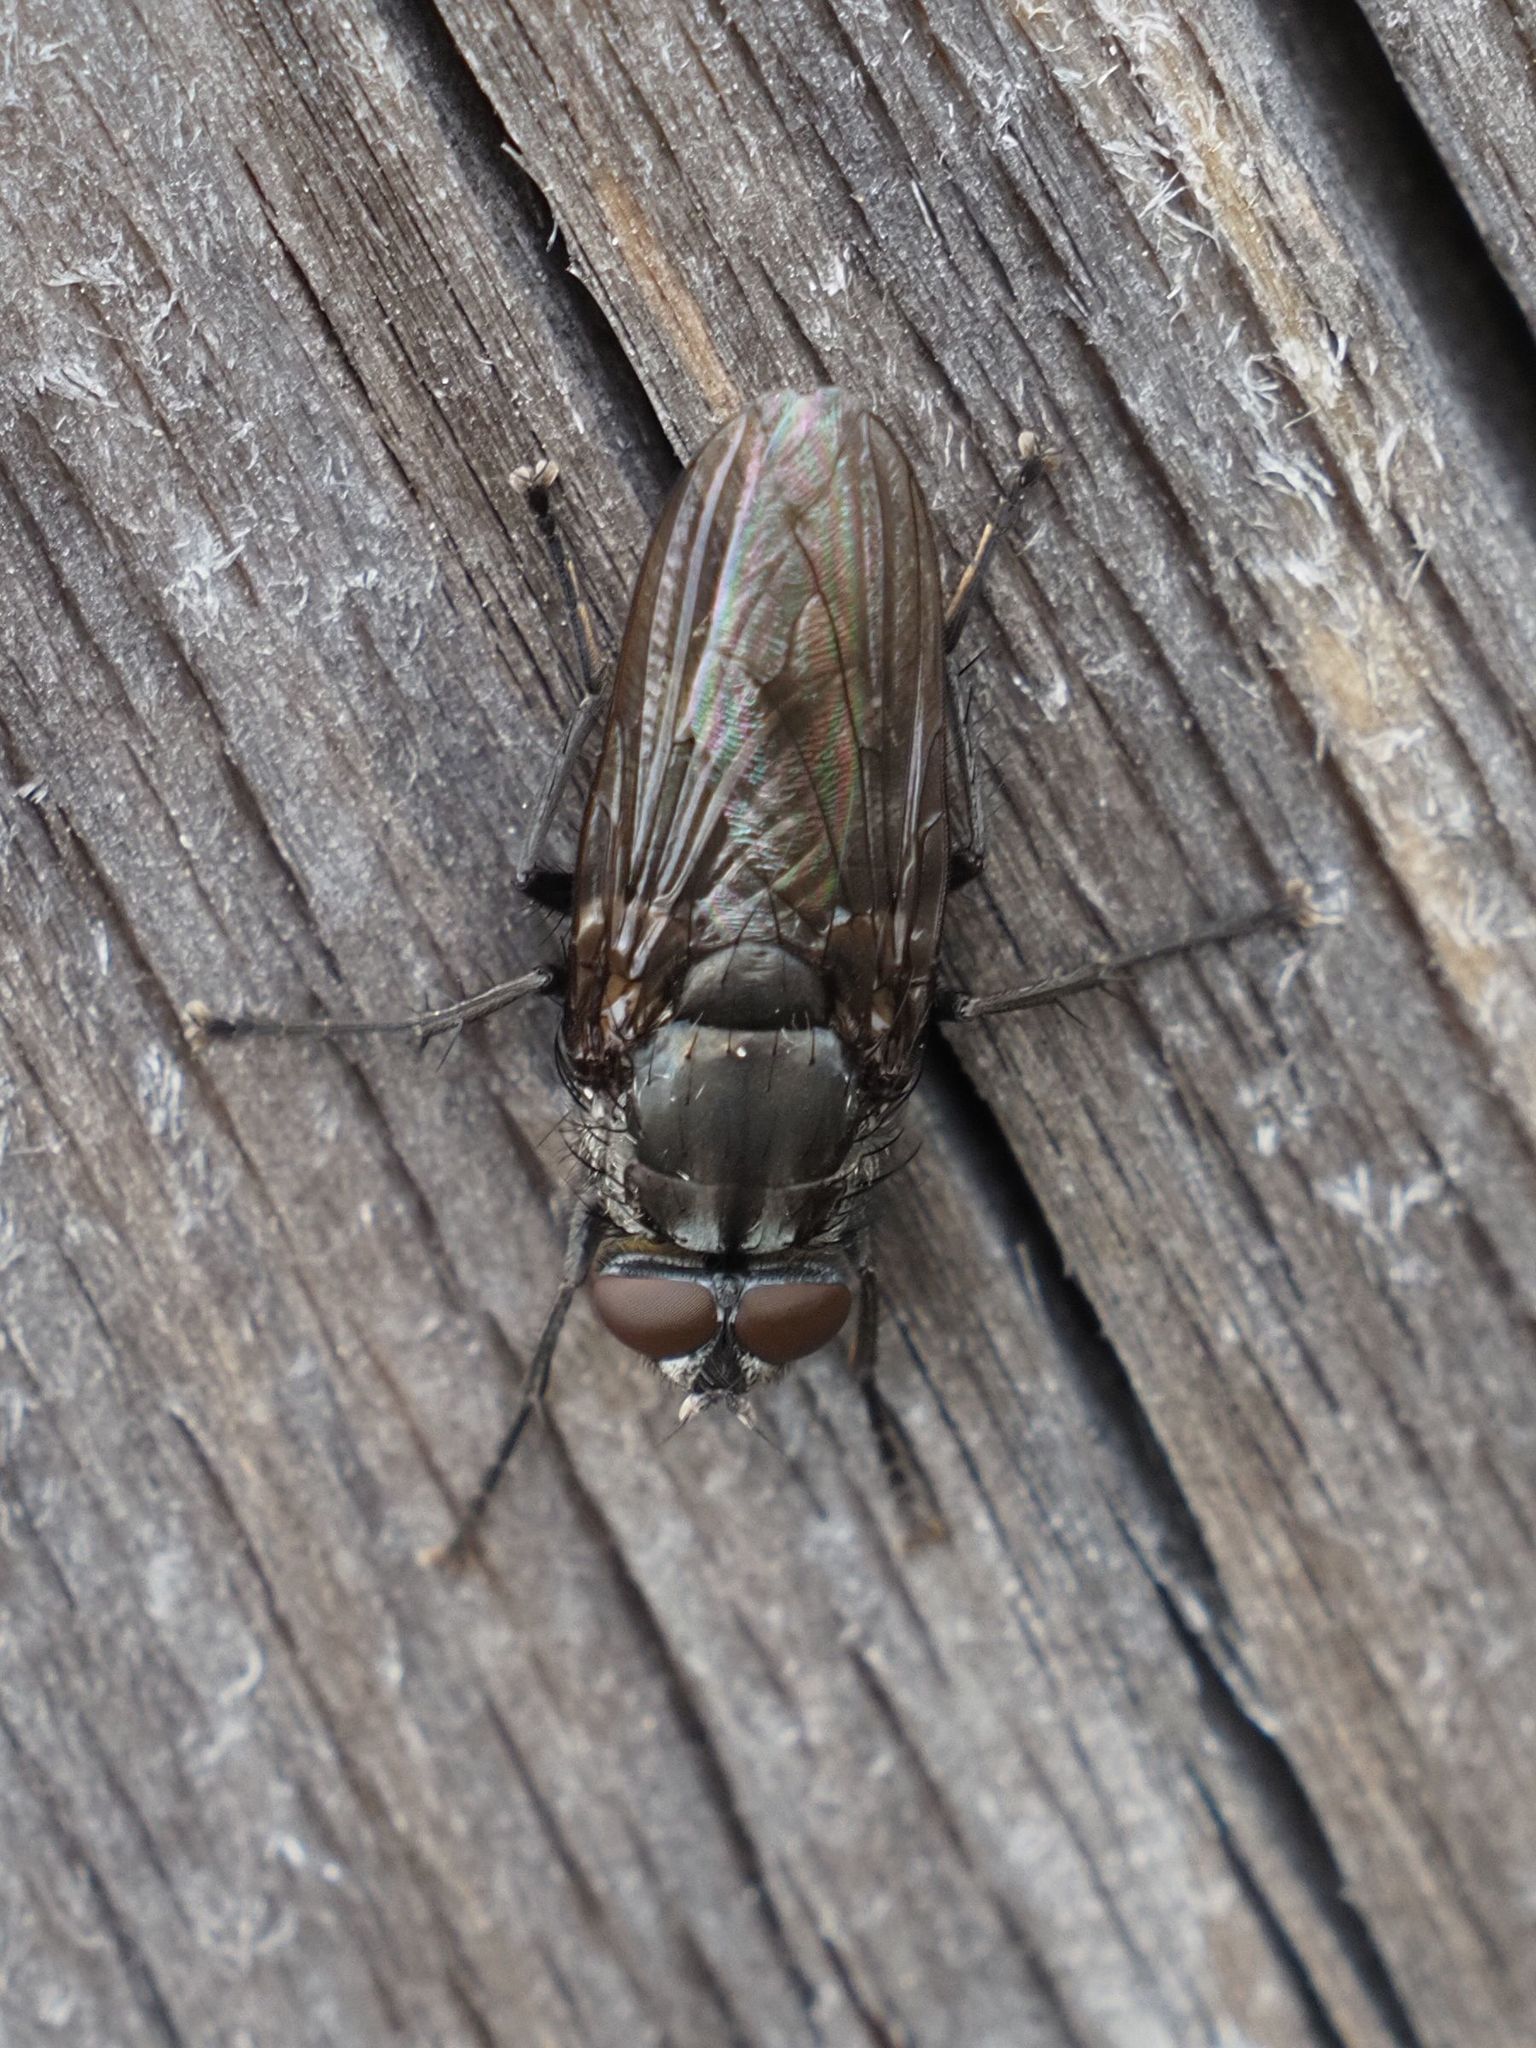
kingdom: Animalia
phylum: Arthropoda
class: Insecta
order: Diptera
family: Polleniidae
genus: Pollenia
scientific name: Pollenia vagabunda
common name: Vagabund cluster fly
